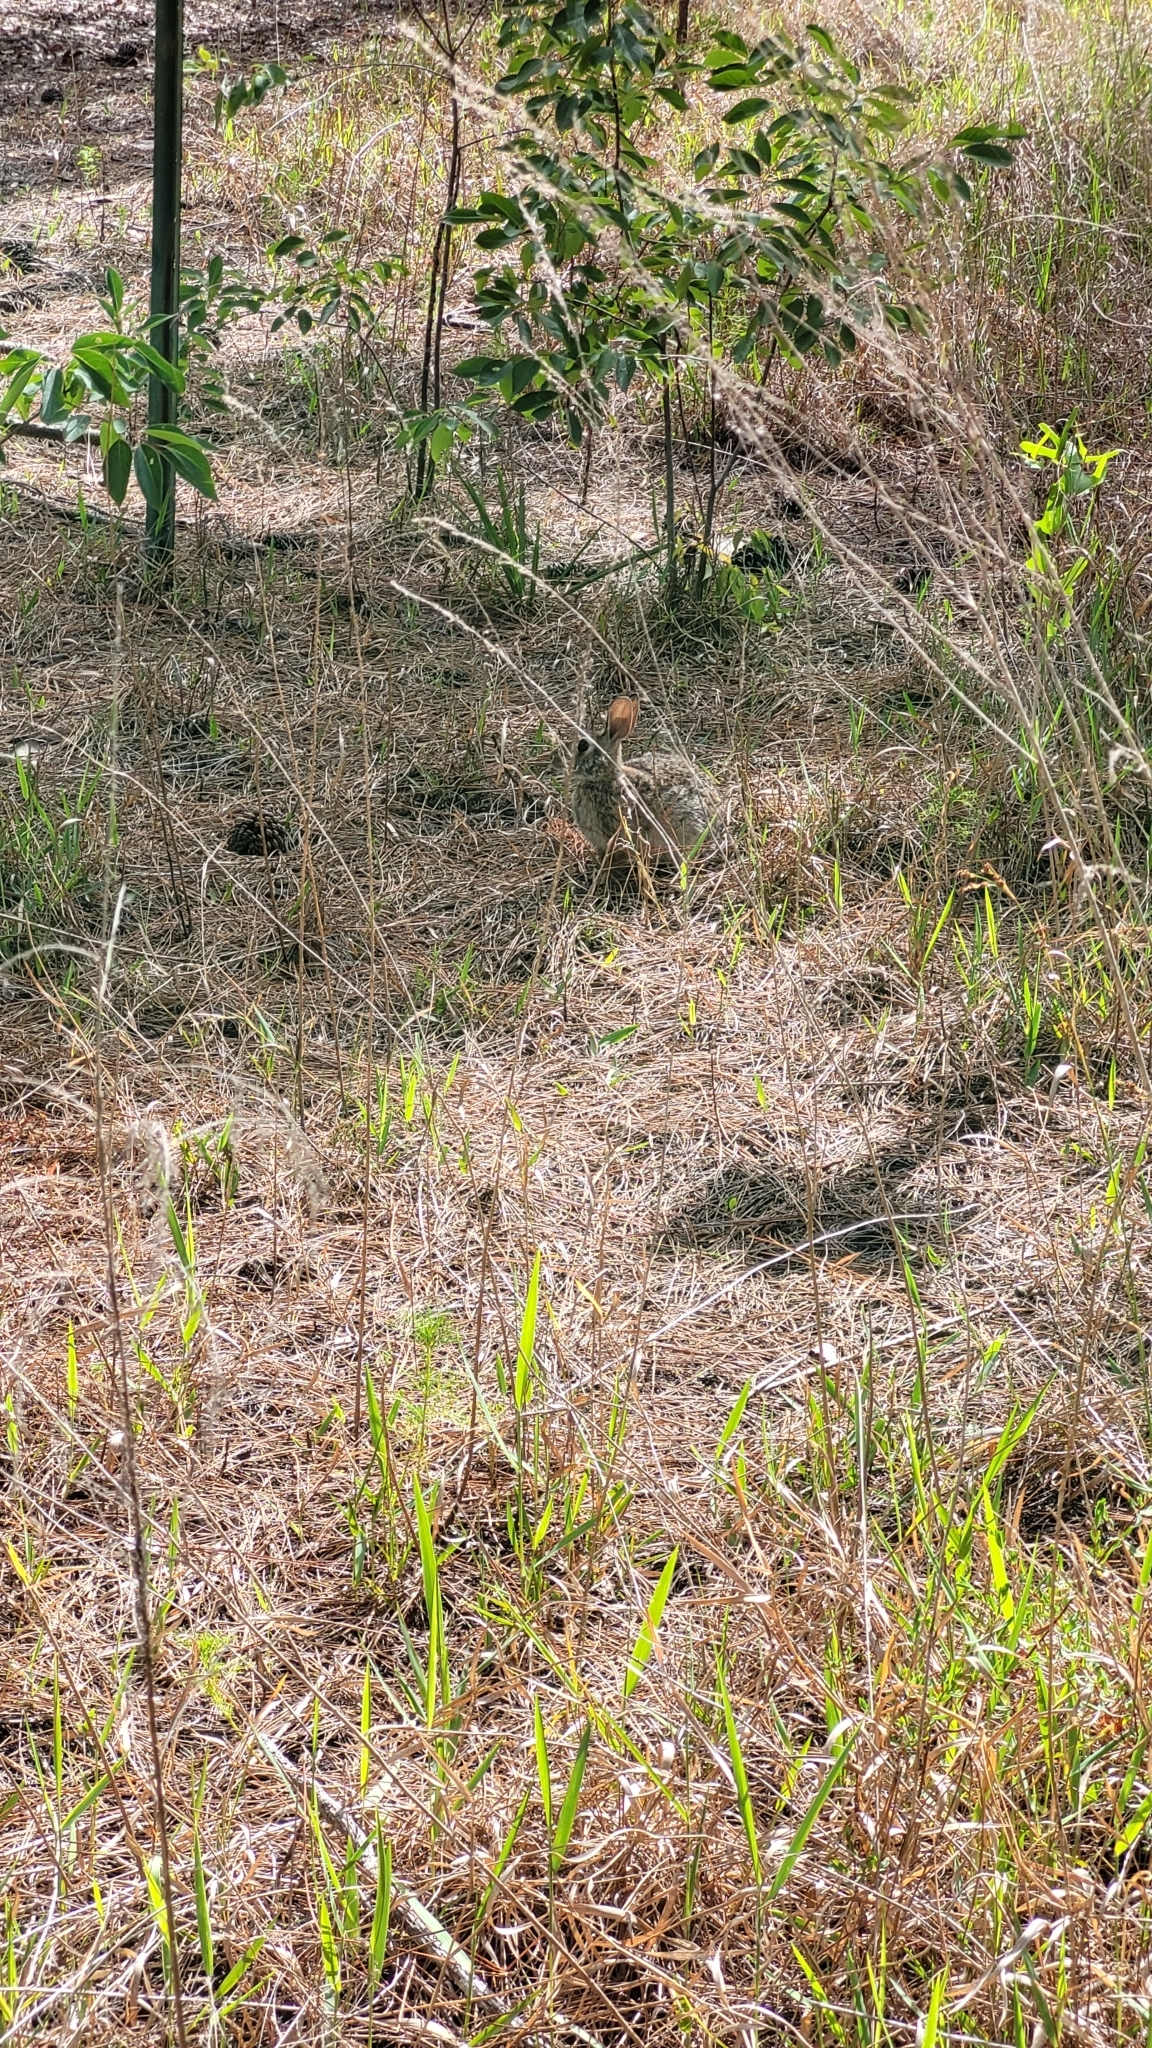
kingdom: Animalia
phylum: Chordata
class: Mammalia
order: Lagomorpha
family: Leporidae
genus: Sylvilagus
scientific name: Sylvilagus floridanus
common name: Eastern cottontail
